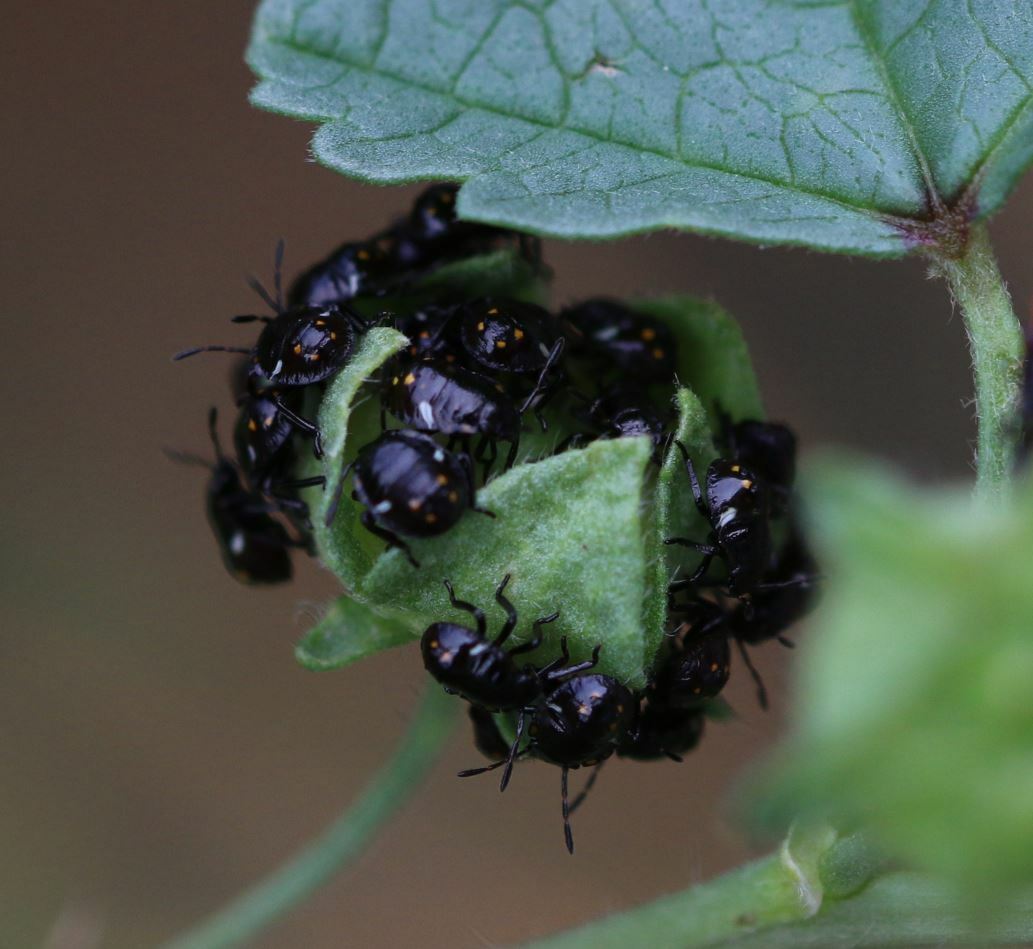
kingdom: Animalia
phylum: Arthropoda
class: Insecta
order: Hemiptera
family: Pentatomidae
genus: Nezara
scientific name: Nezara viridula
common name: Southern green stink bug
